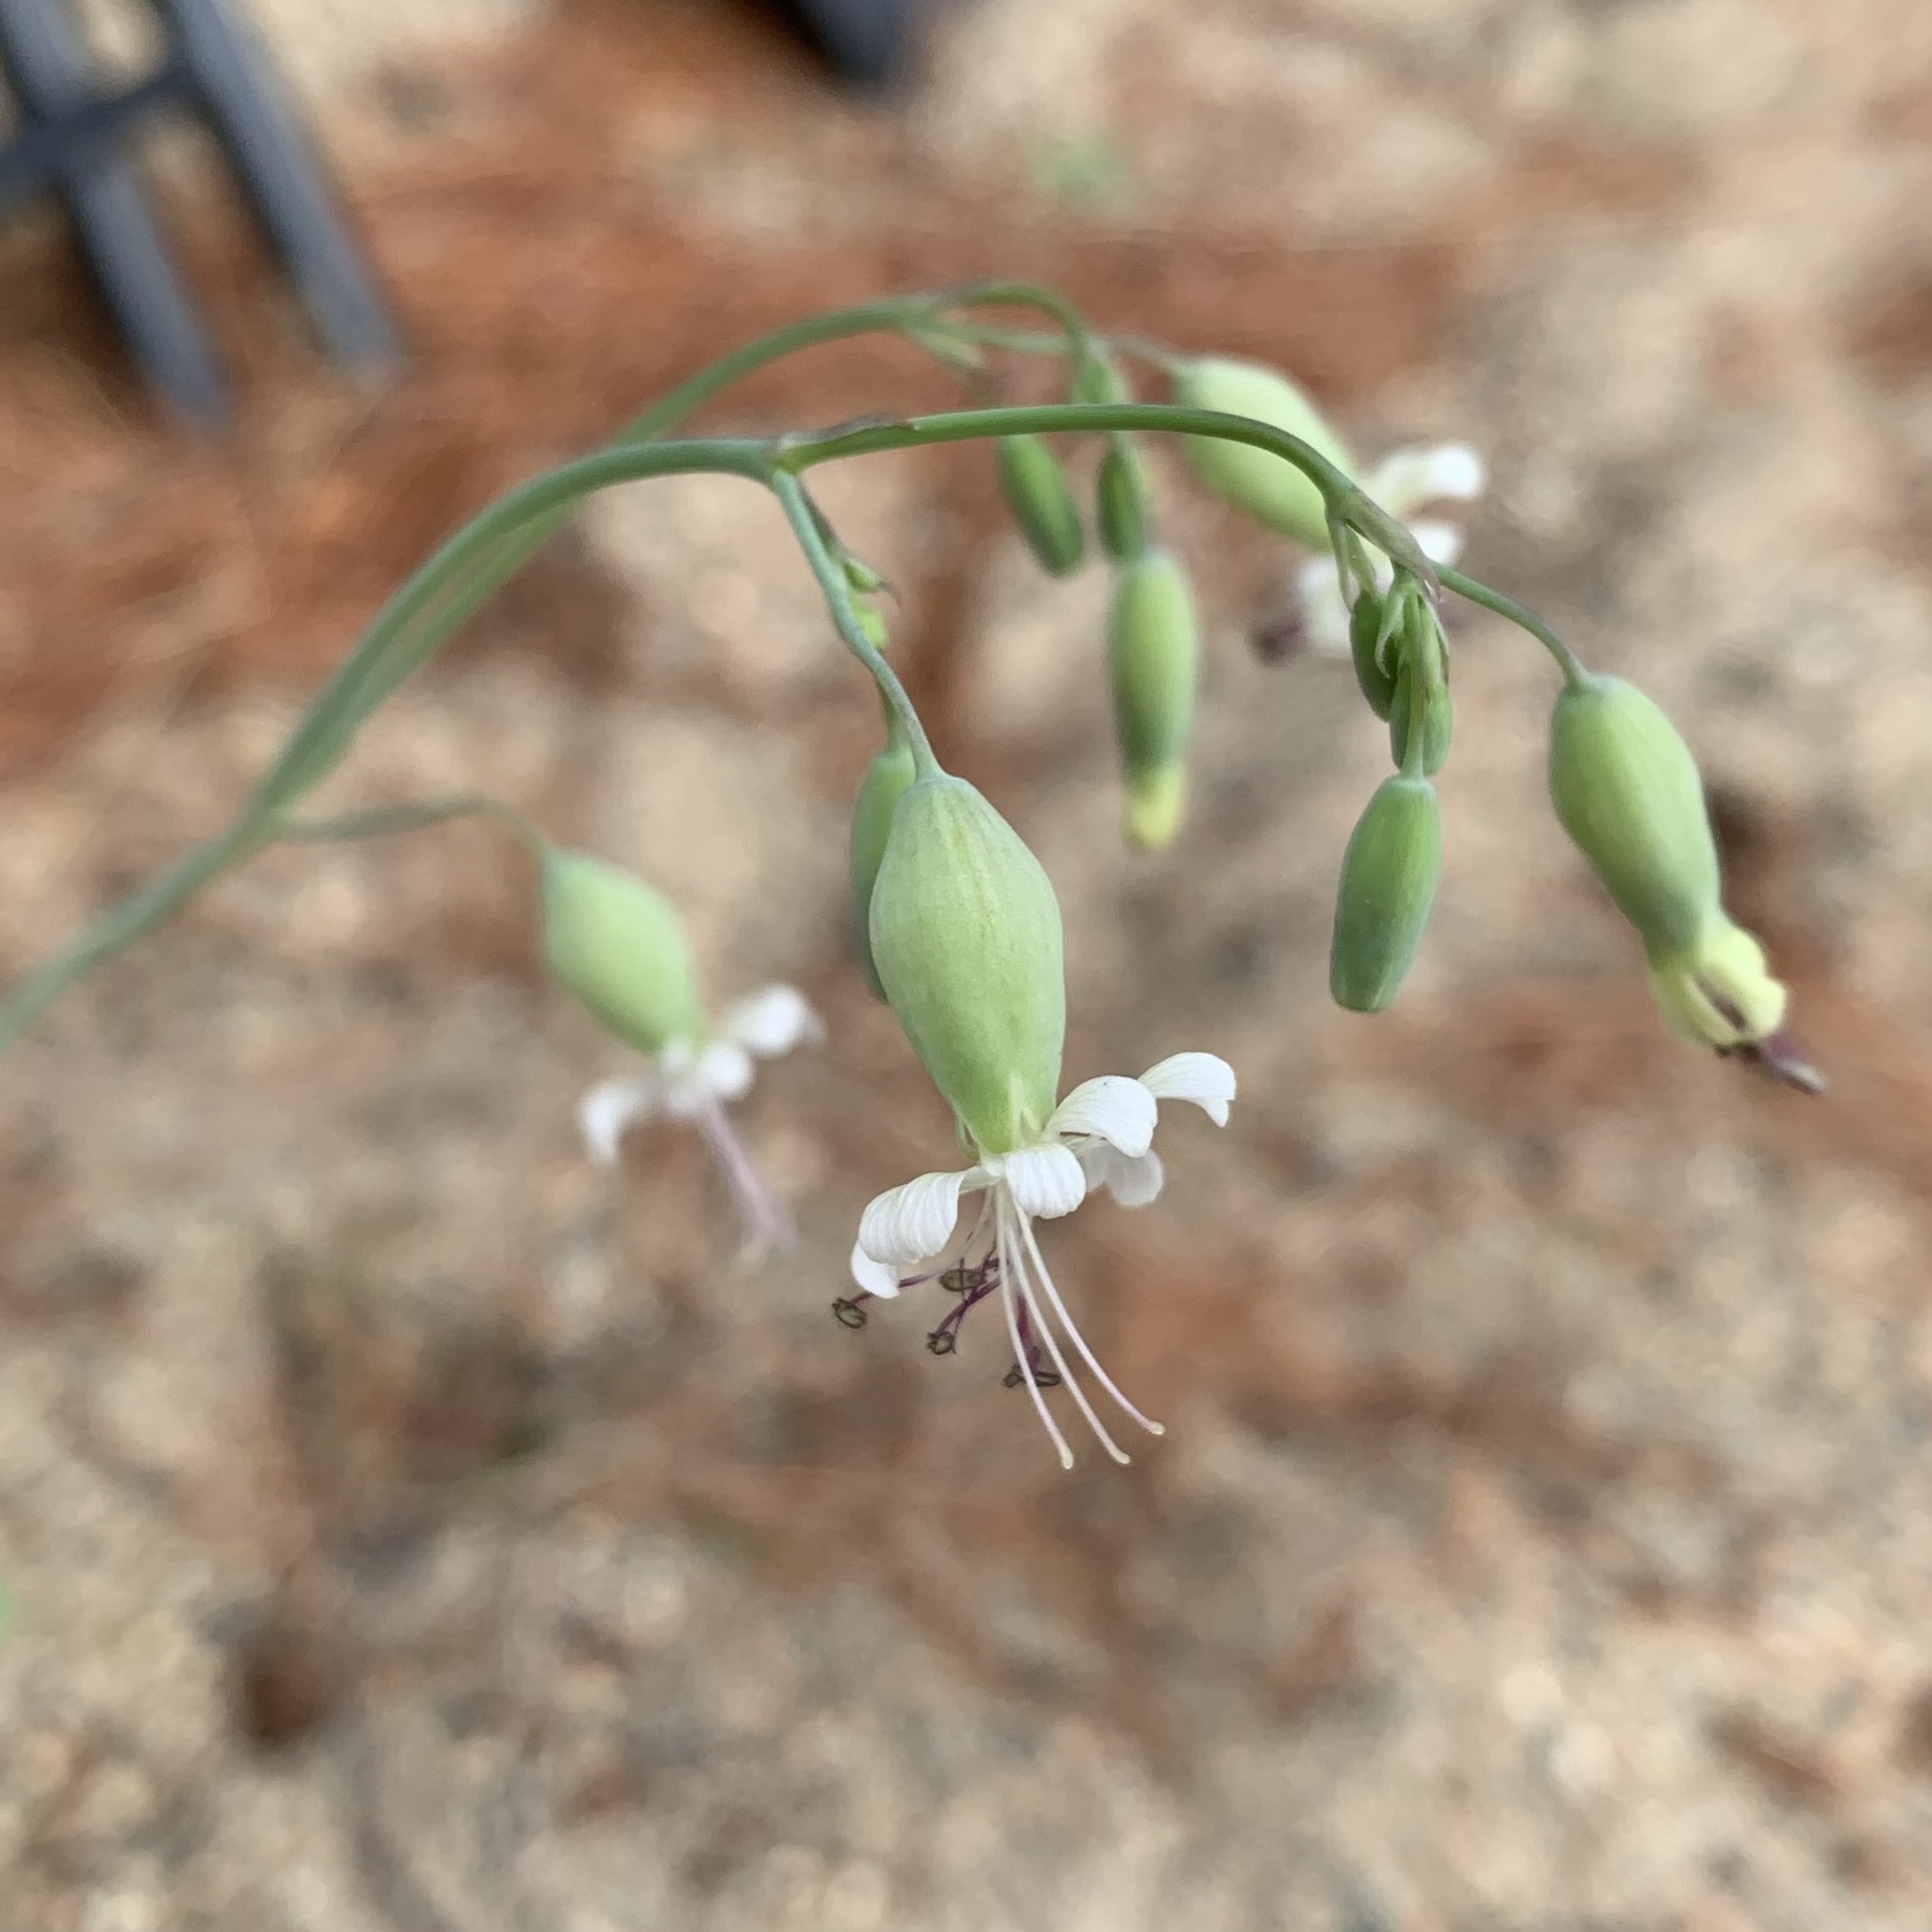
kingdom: Plantae
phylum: Tracheophyta
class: Magnoliopsida
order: Caryophyllales
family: Caryophyllaceae
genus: Silene
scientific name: Silene csereii
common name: Balkan catchfly
